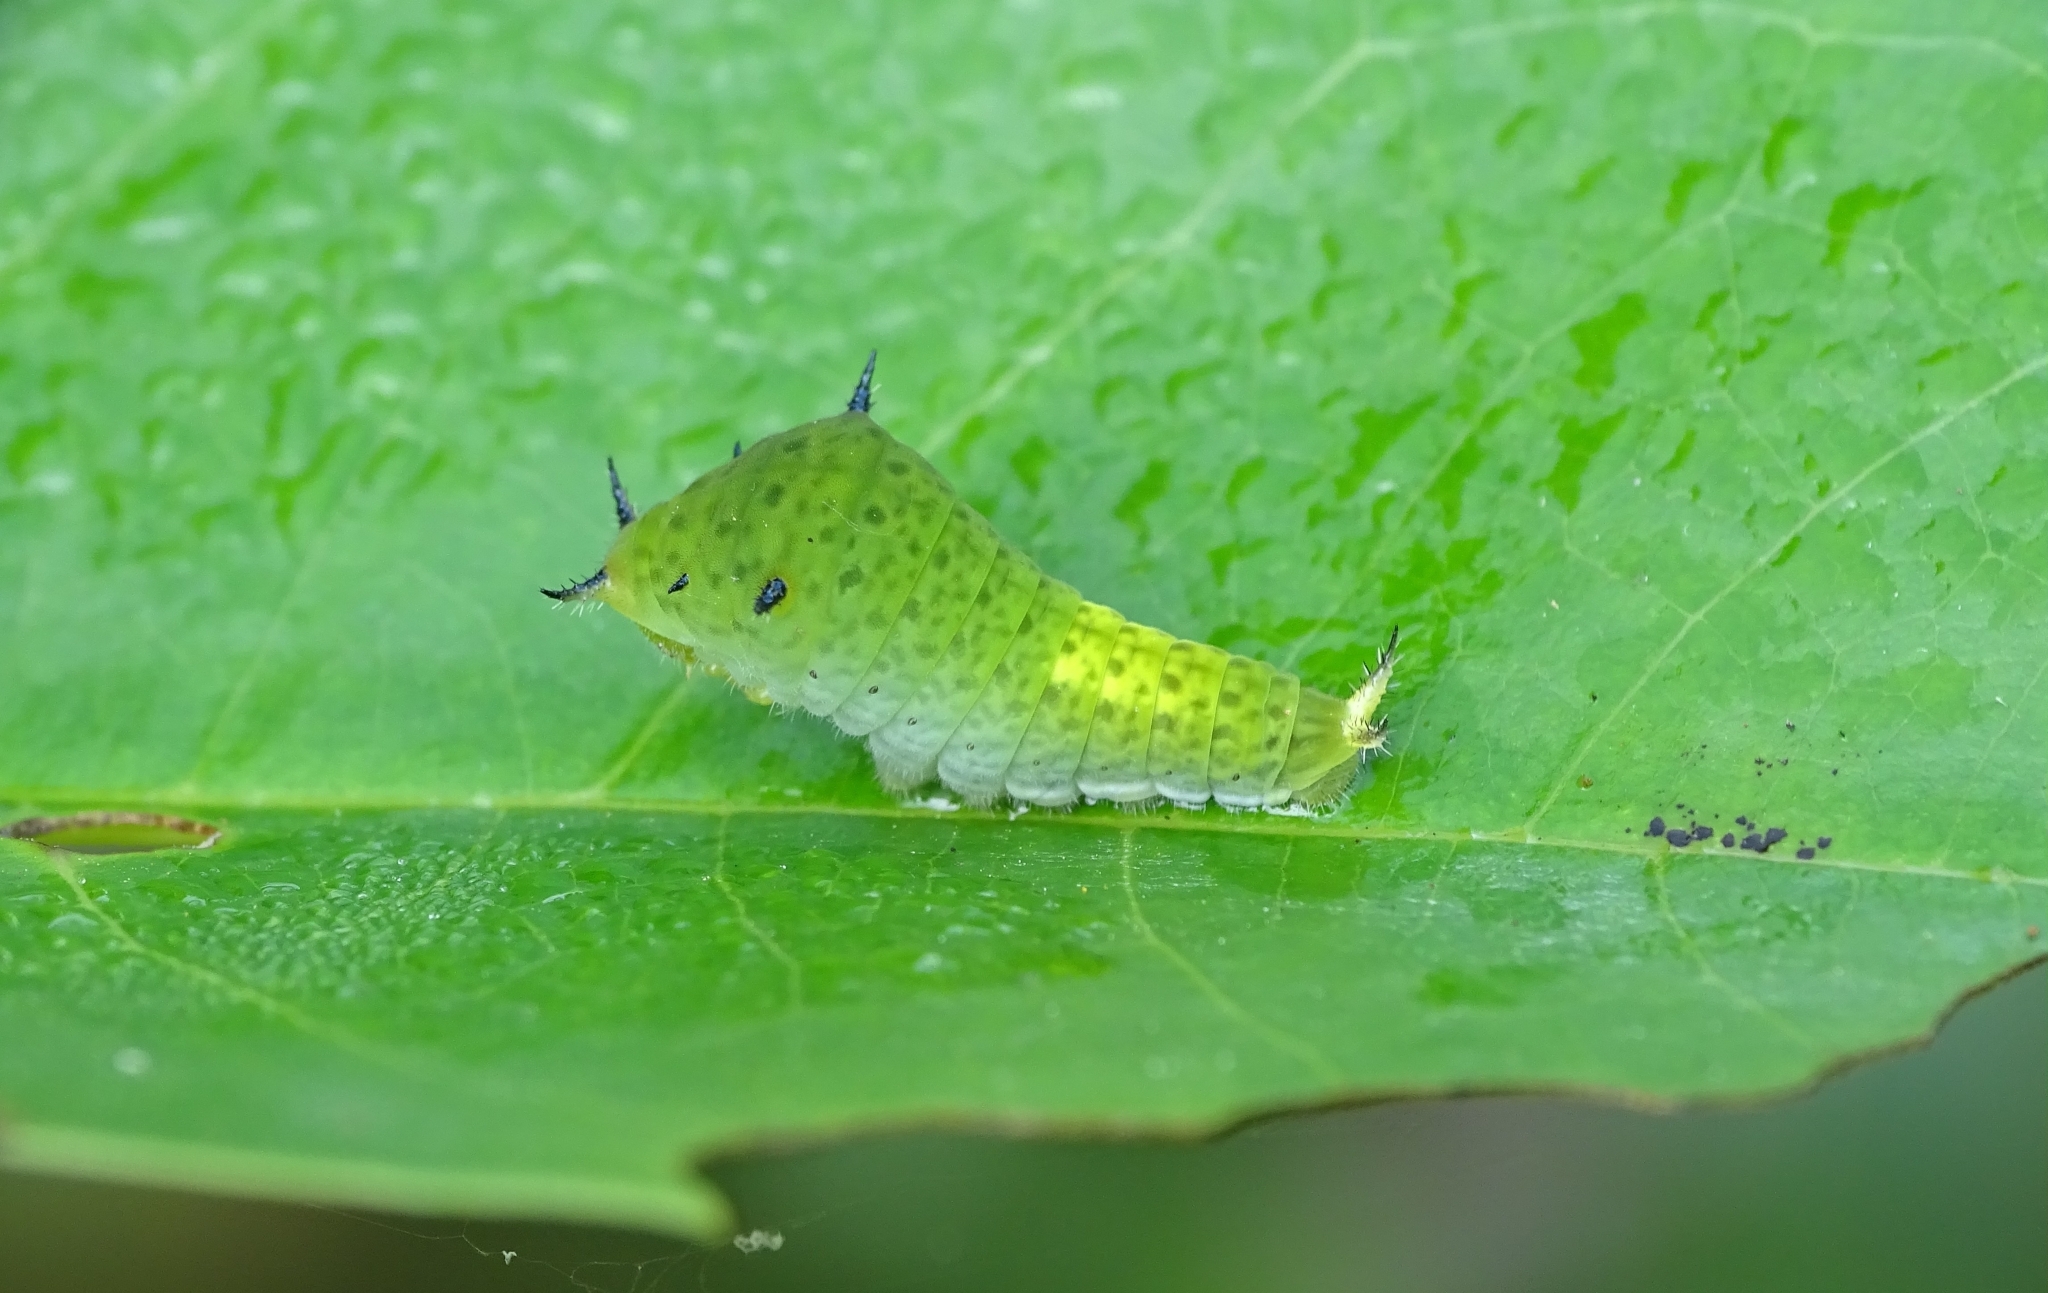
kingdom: Animalia
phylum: Arthropoda
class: Insecta
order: Lepidoptera
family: Papilionidae
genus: Graphium
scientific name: Graphium agamemnon
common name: Tailed jay
